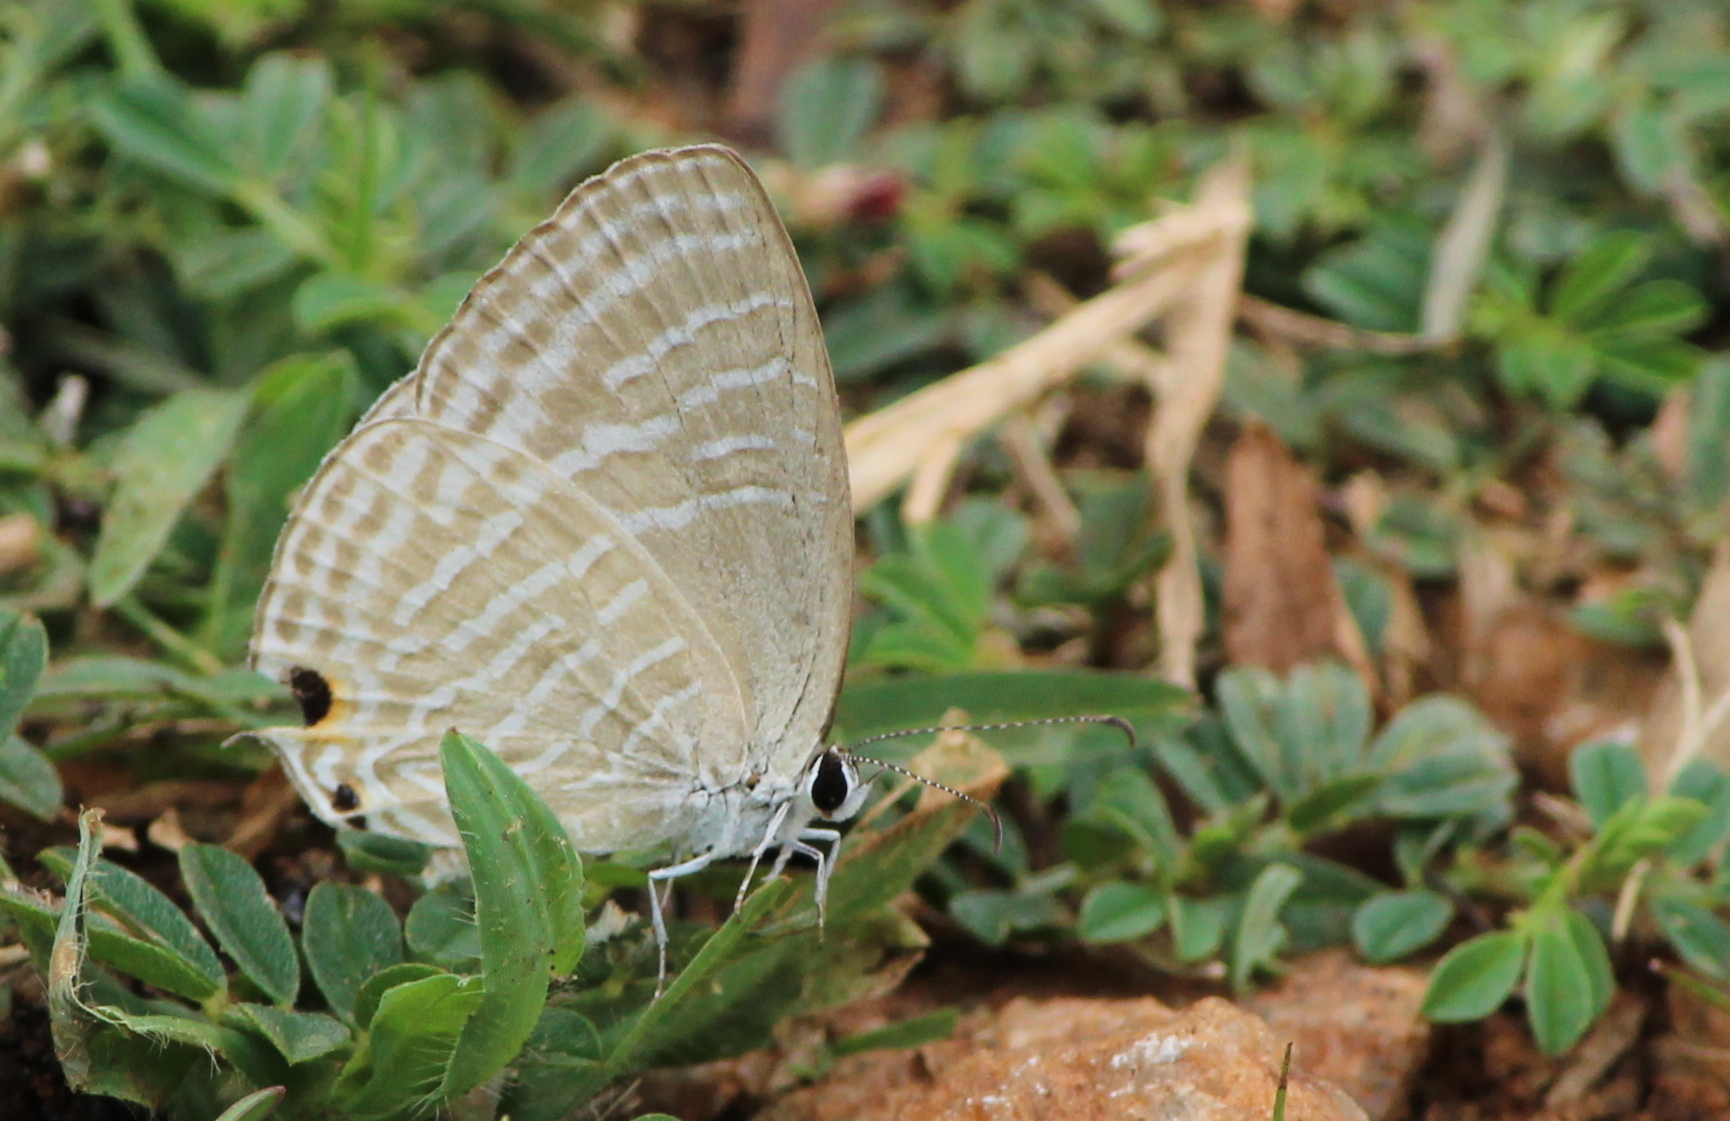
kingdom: Animalia
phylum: Arthropoda
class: Insecta
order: Lepidoptera
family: Lycaenidae
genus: Jamides
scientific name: Jamides celeno
